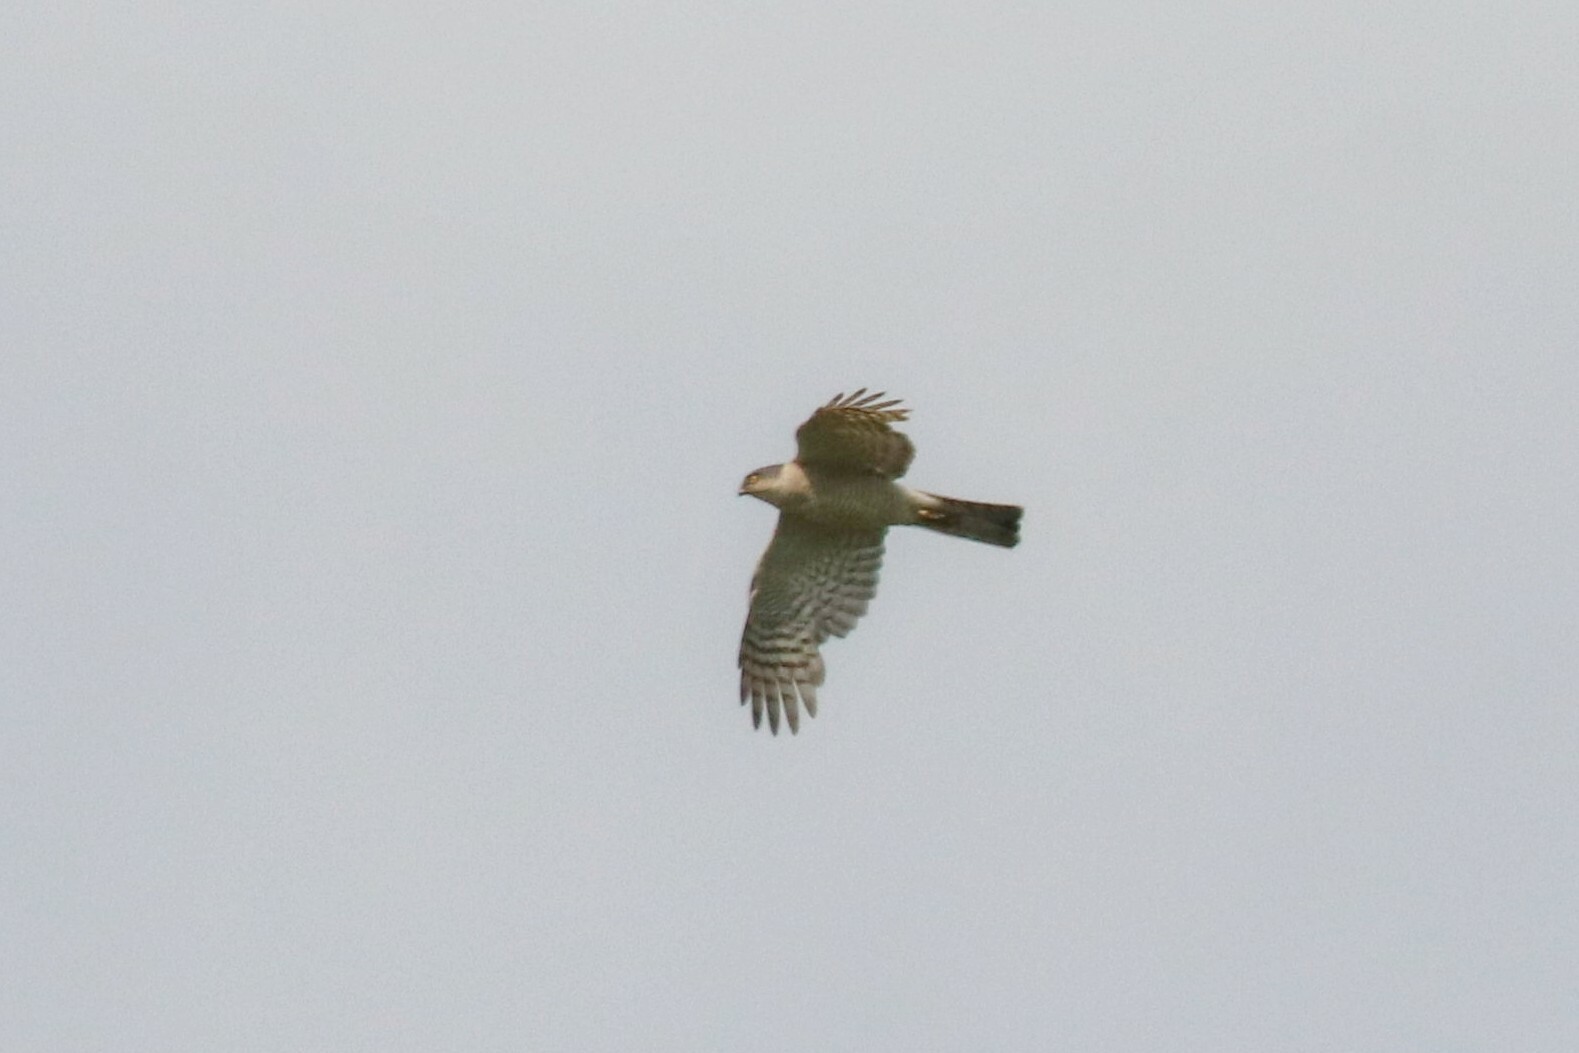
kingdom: Animalia
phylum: Chordata
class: Aves
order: Accipitriformes
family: Accipitridae
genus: Accipiter
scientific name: Accipiter nisus
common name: Eurasian sparrowhawk
